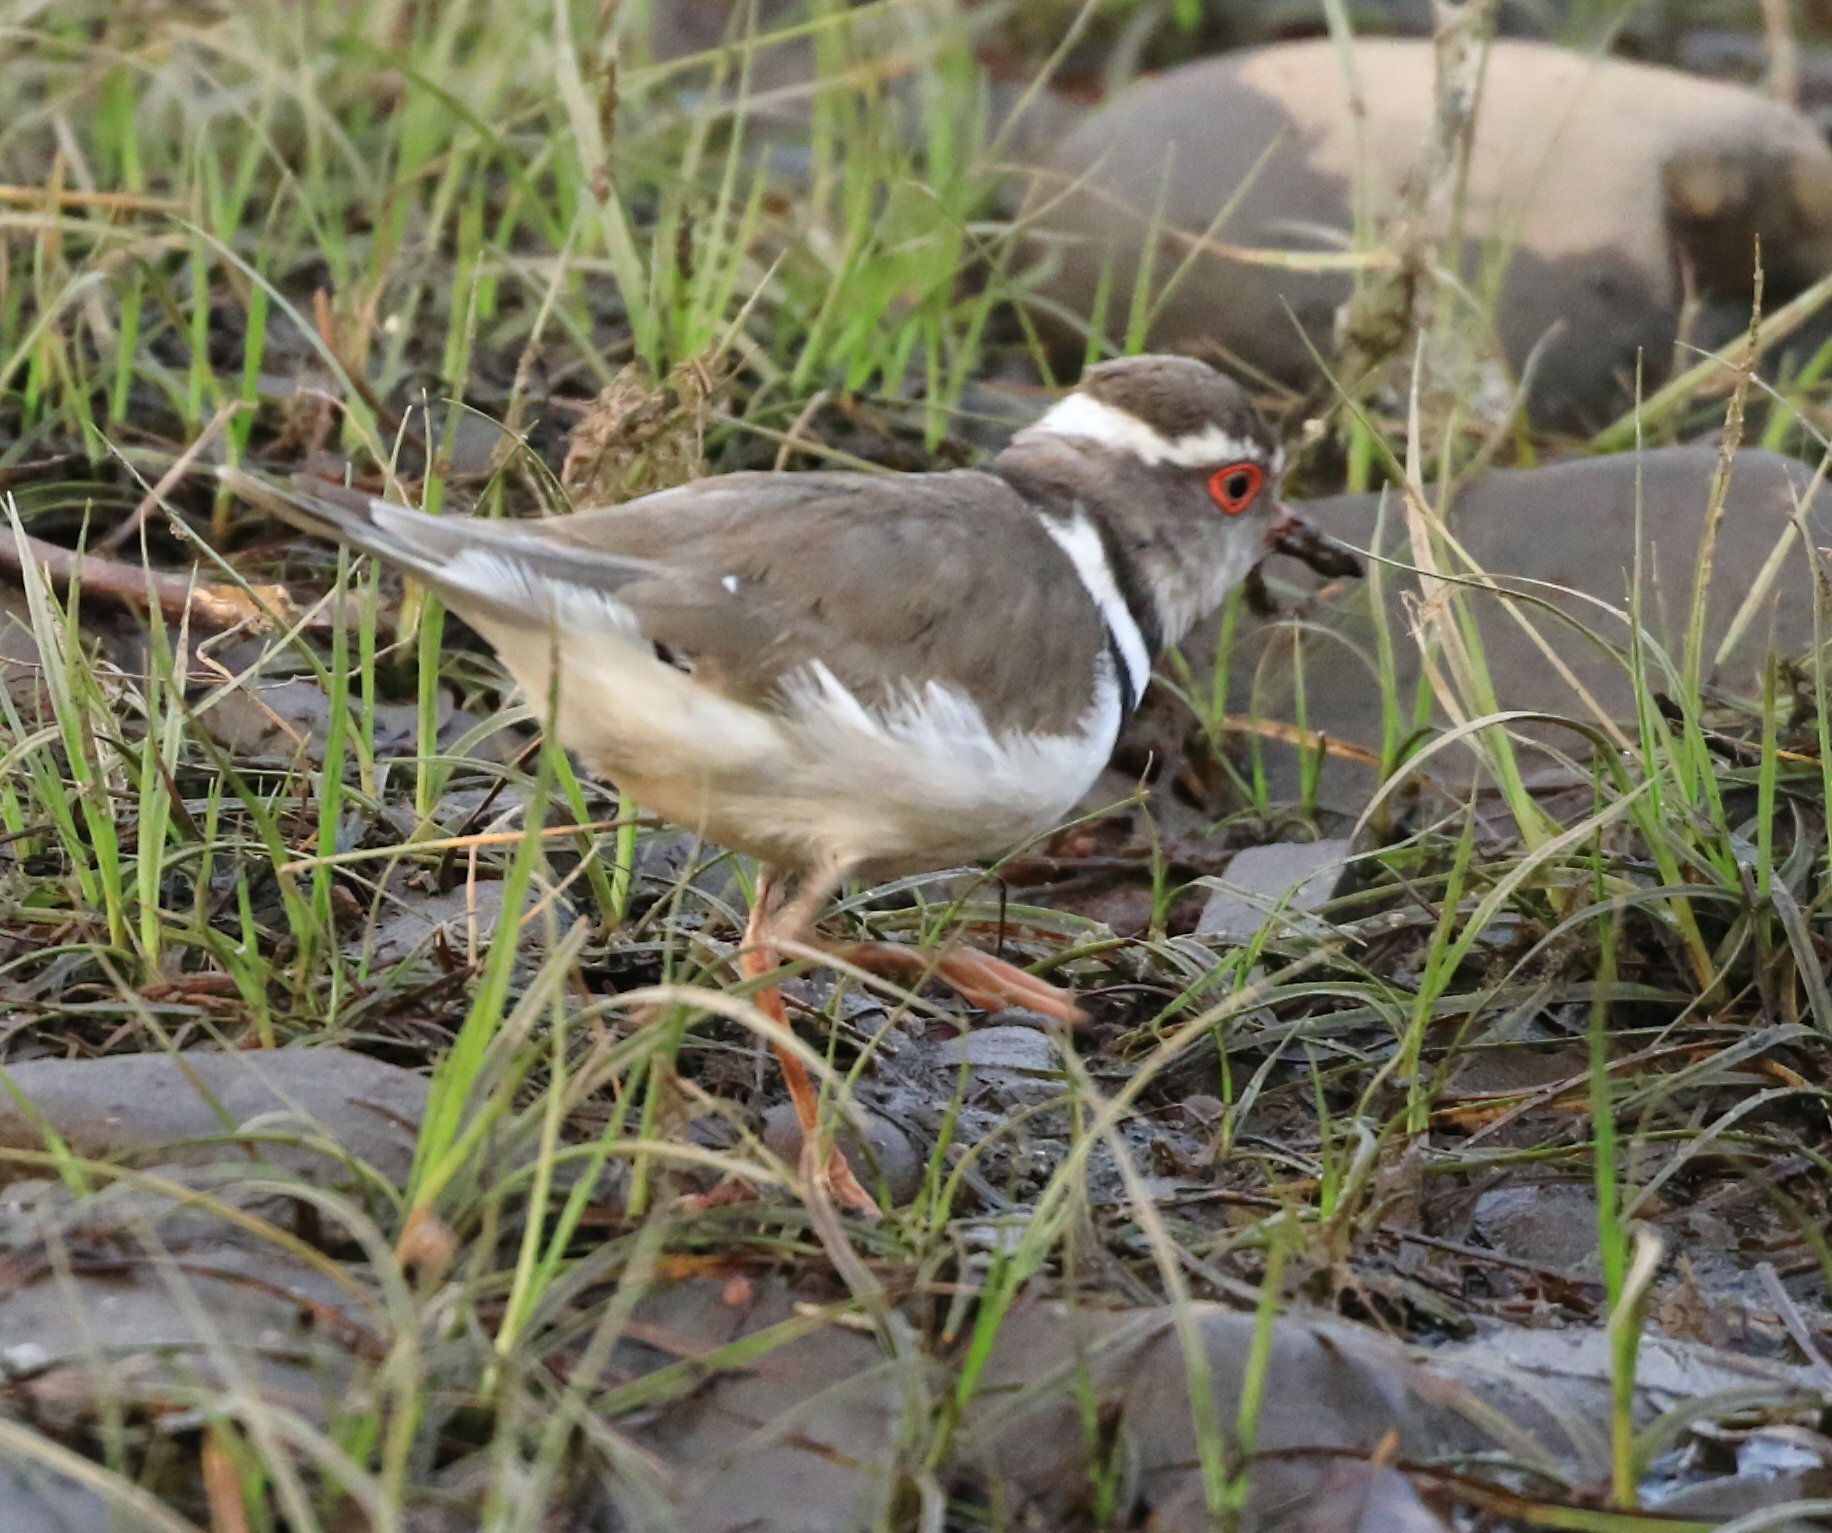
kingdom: Animalia
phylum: Chordata
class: Aves
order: Charadriiformes
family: Charadriidae
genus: Charadrius
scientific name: Charadrius tricollaris
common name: Three-banded plover
